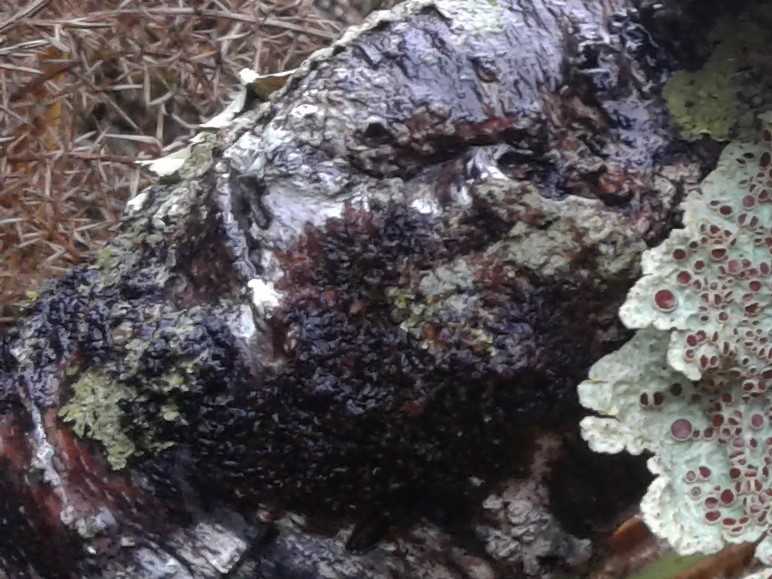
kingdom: Fungi
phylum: Ascomycota
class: Lecanoromycetes
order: Peltigerales
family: Collemataceae
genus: Collema
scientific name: Collema
